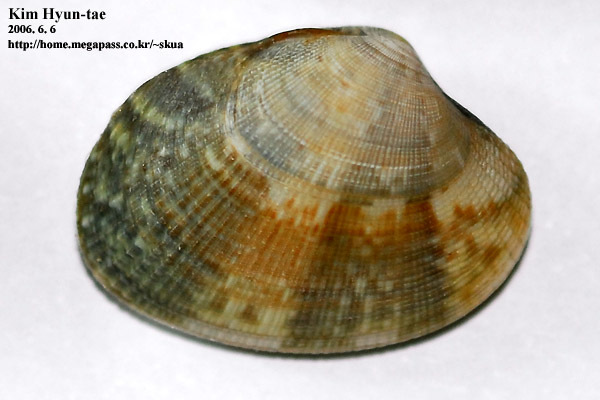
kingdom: Animalia
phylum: Mollusca
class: Bivalvia
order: Venerida
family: Veneridae
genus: Ruditapes
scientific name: Ruditapes philippinarum
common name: Manila clam
